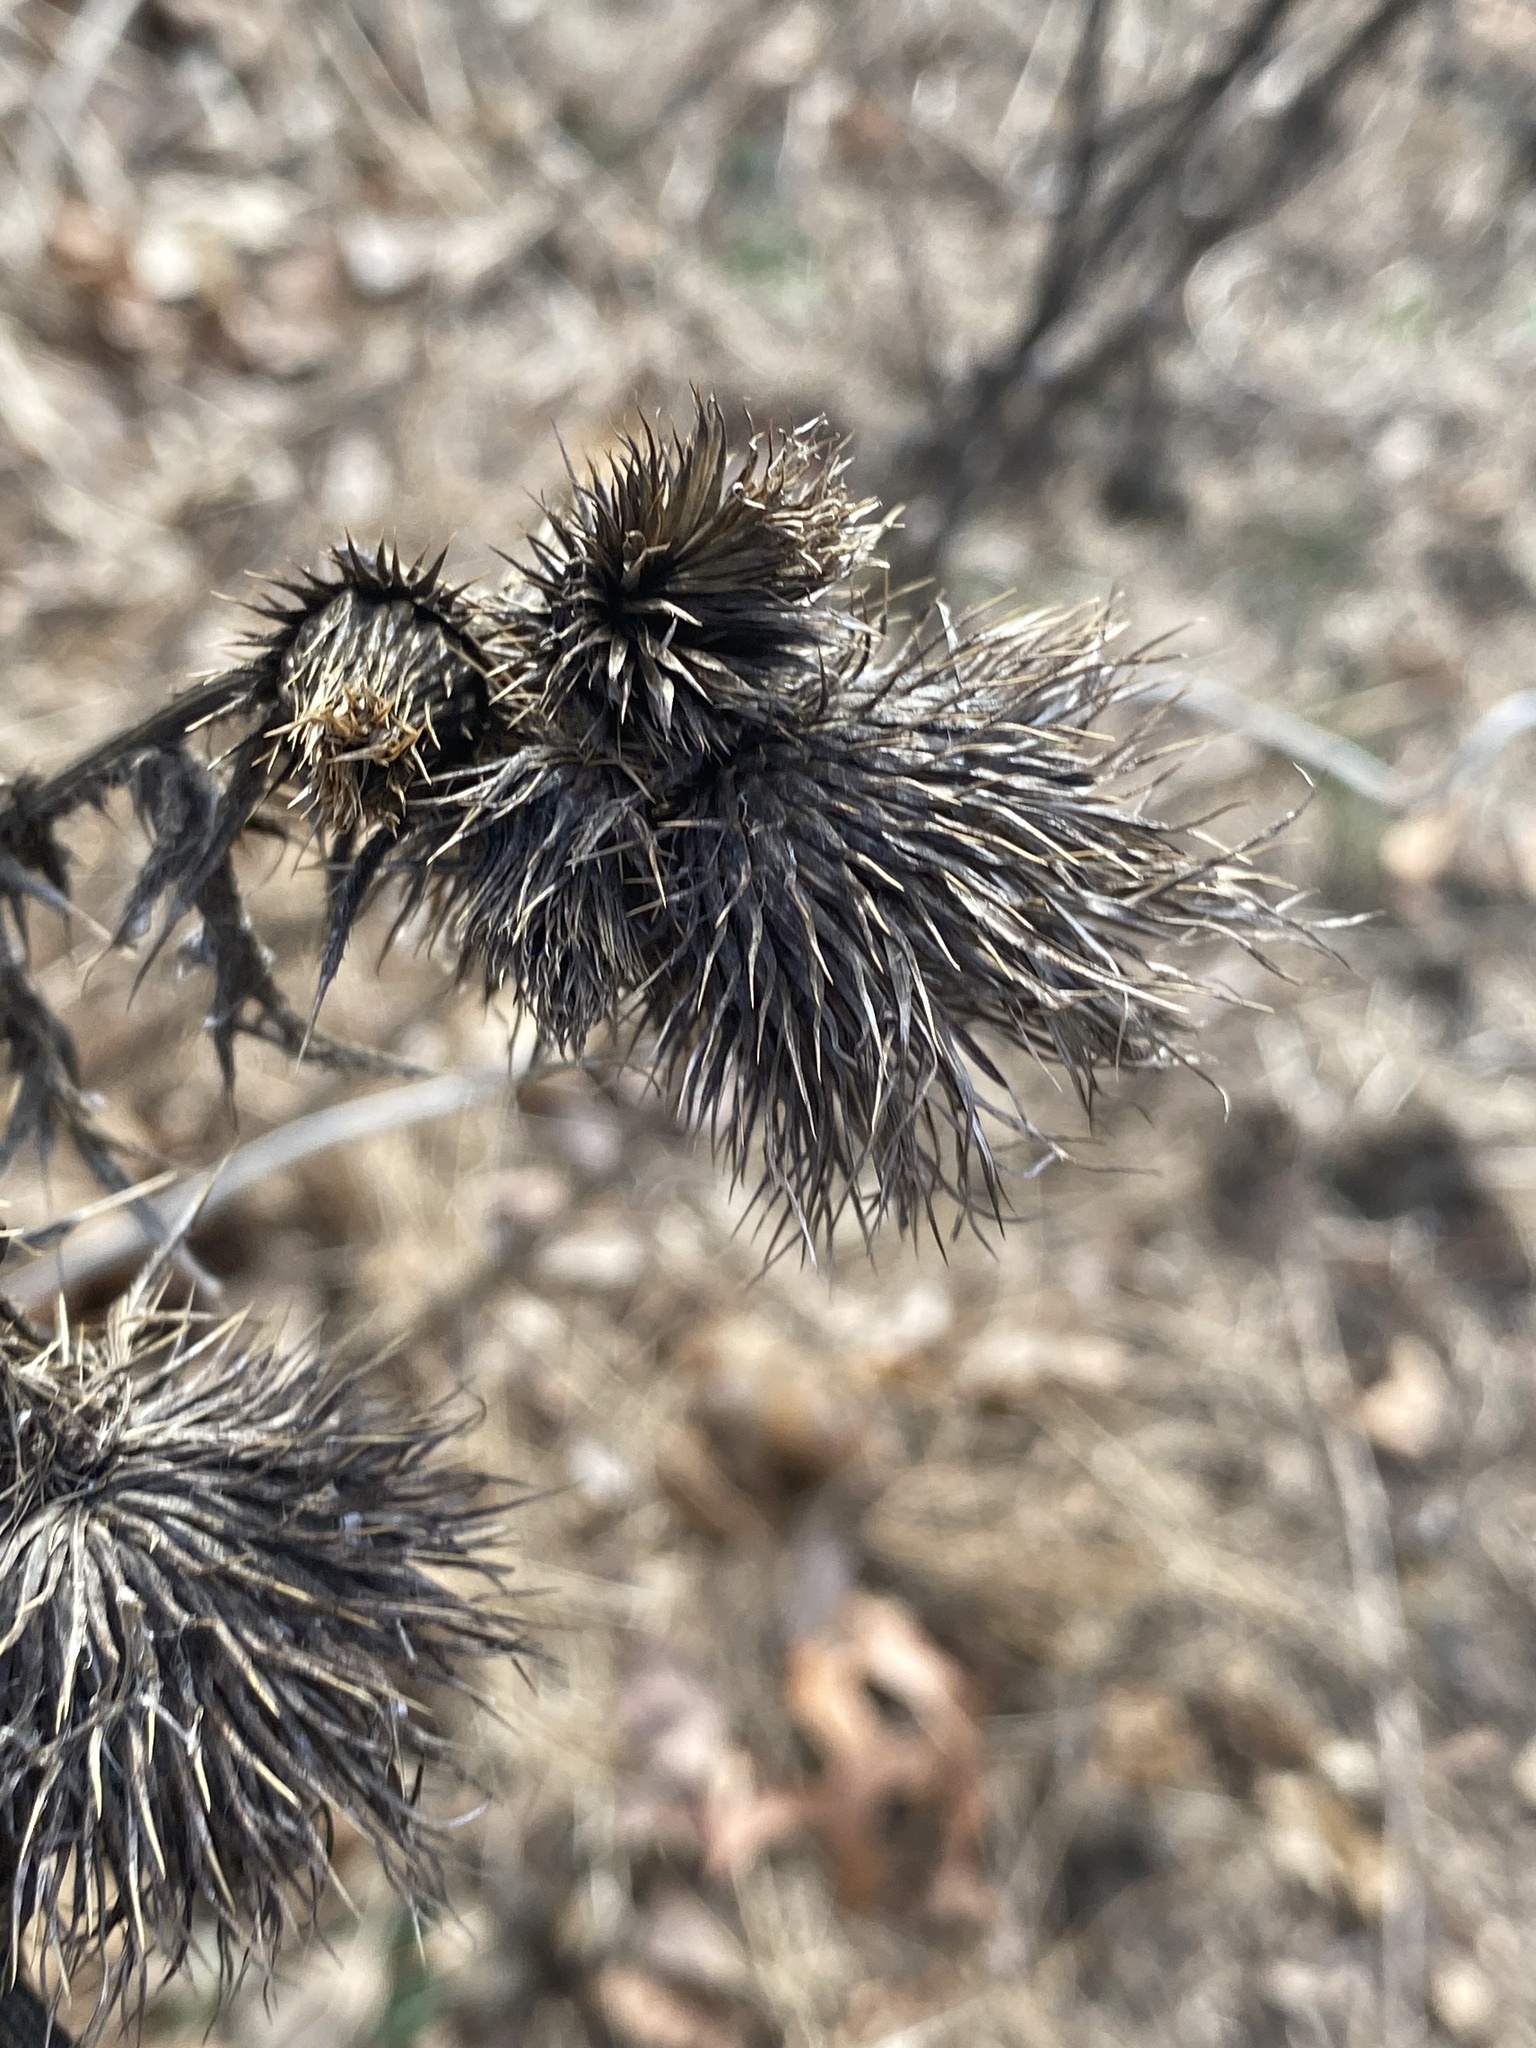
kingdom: Plantae
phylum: Tracheophyta
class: Magnoliopsida
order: Asterales
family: Asteraceae
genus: Cirsium
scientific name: Cirsium vulgare
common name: Bull thistle
